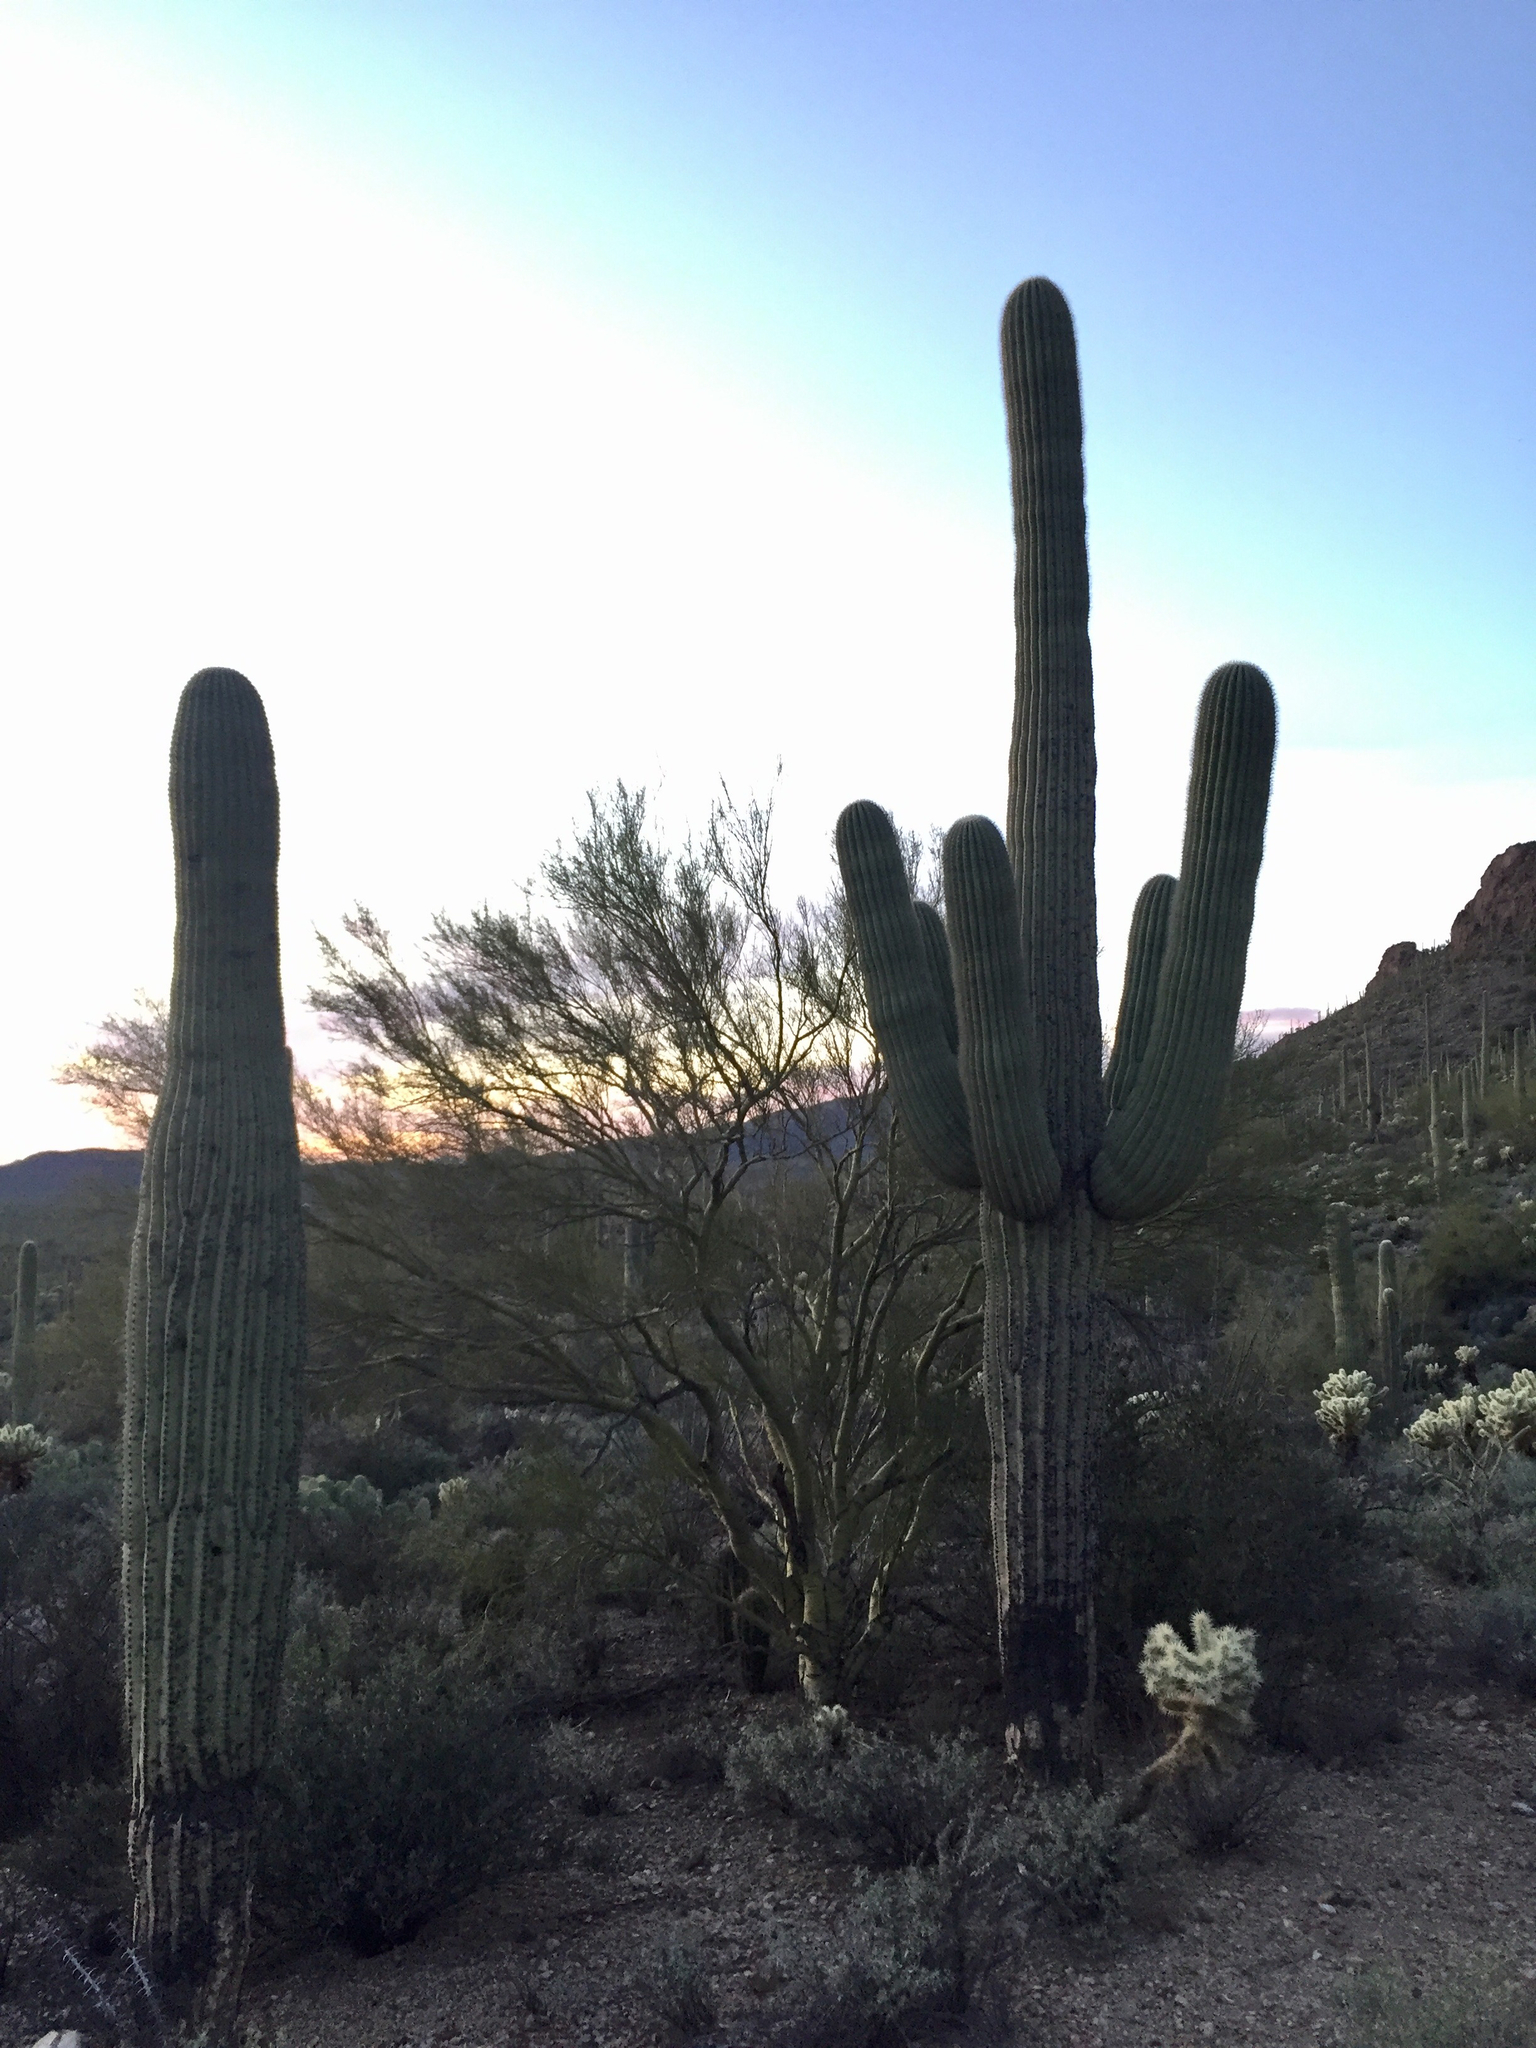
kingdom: Plantae
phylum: Tracheophyta
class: Magnoliopsida
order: Caryophyllales
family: Cactaceae
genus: Carnegiea
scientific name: Carnegiea gigantea
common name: Saguaro
